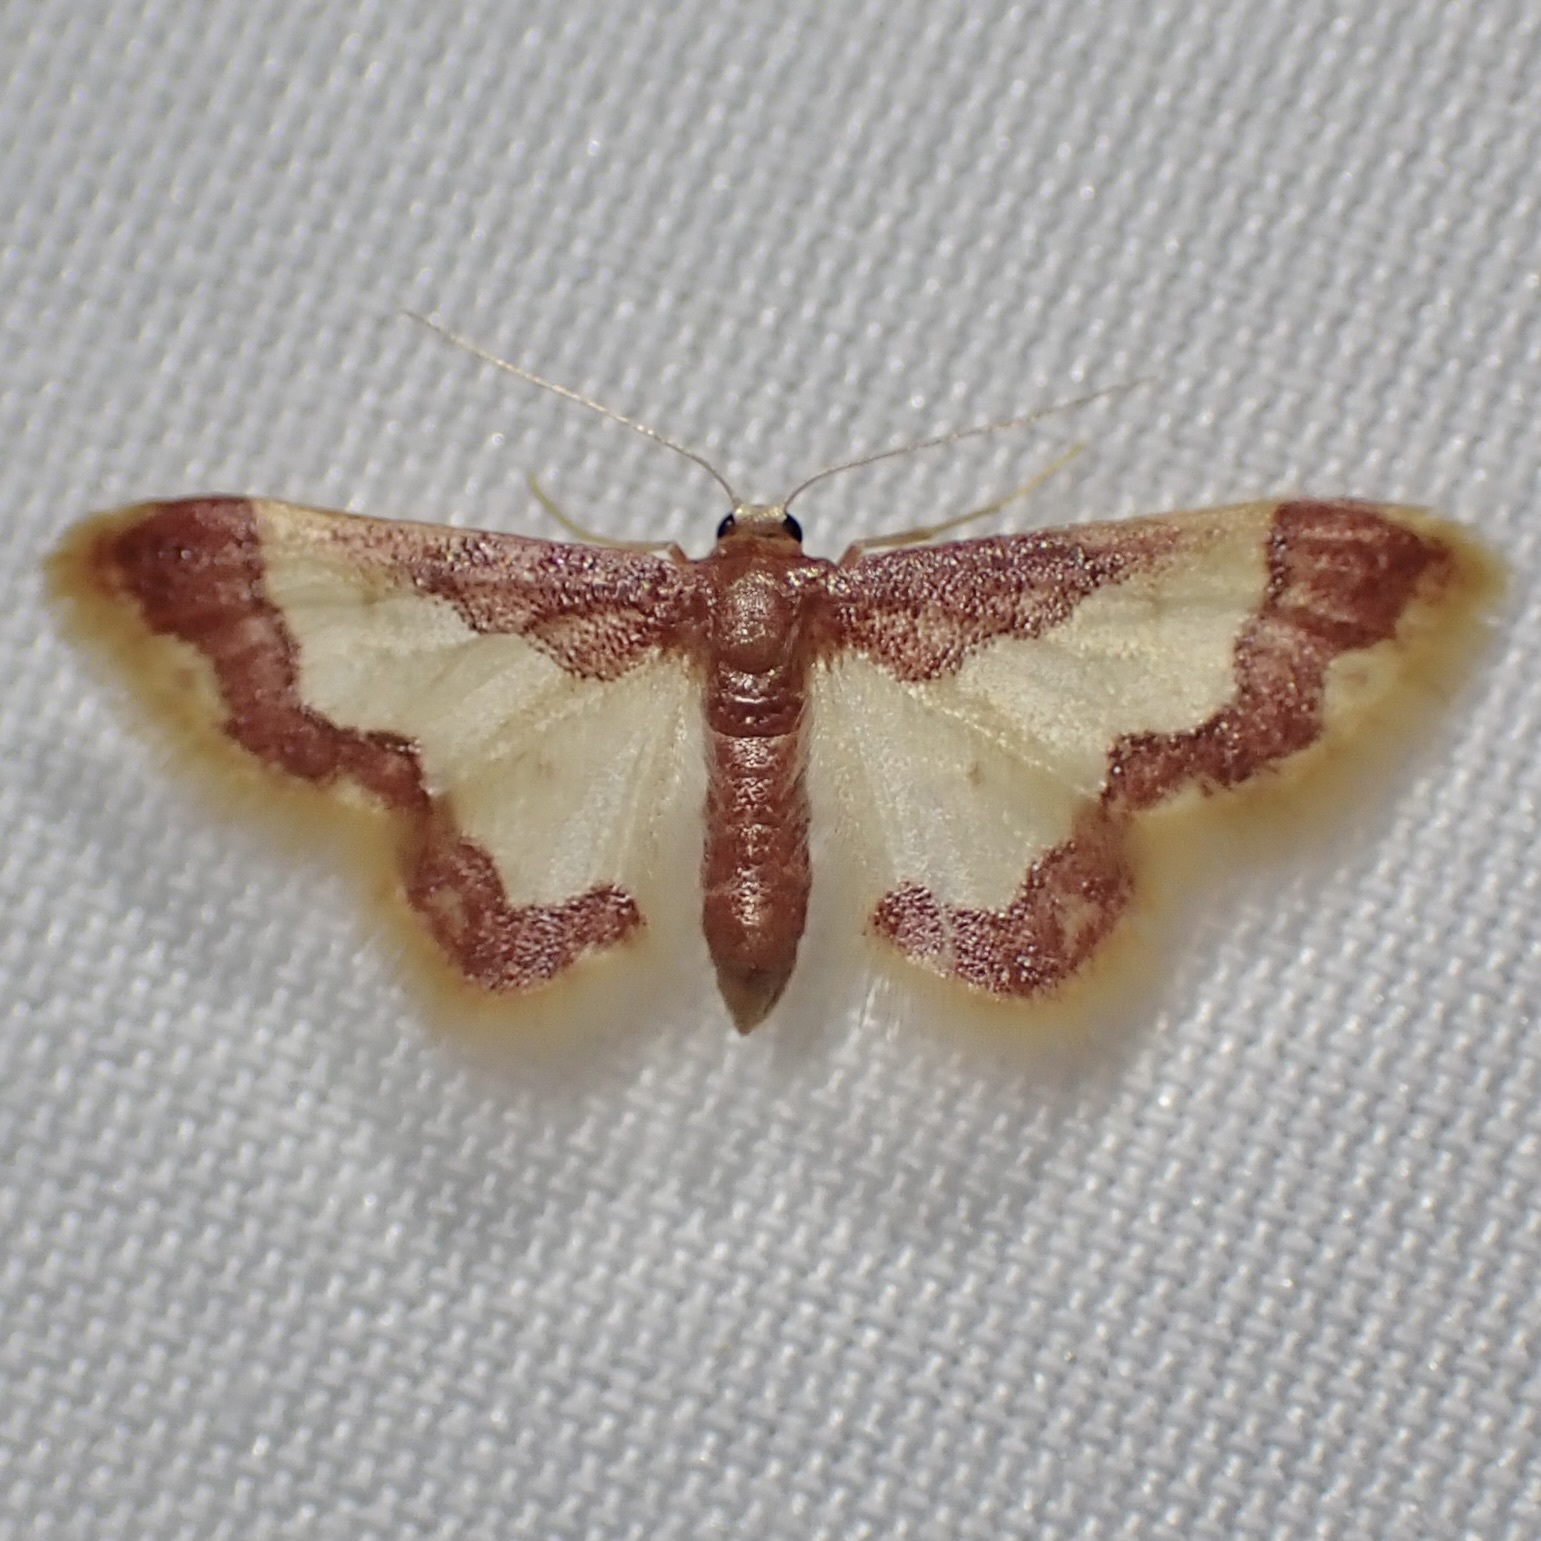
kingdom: Animalia
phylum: Arthropoda
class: Insecta
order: Lepidoptera
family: Geometridae
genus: Idaea
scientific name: Idaea basinta
